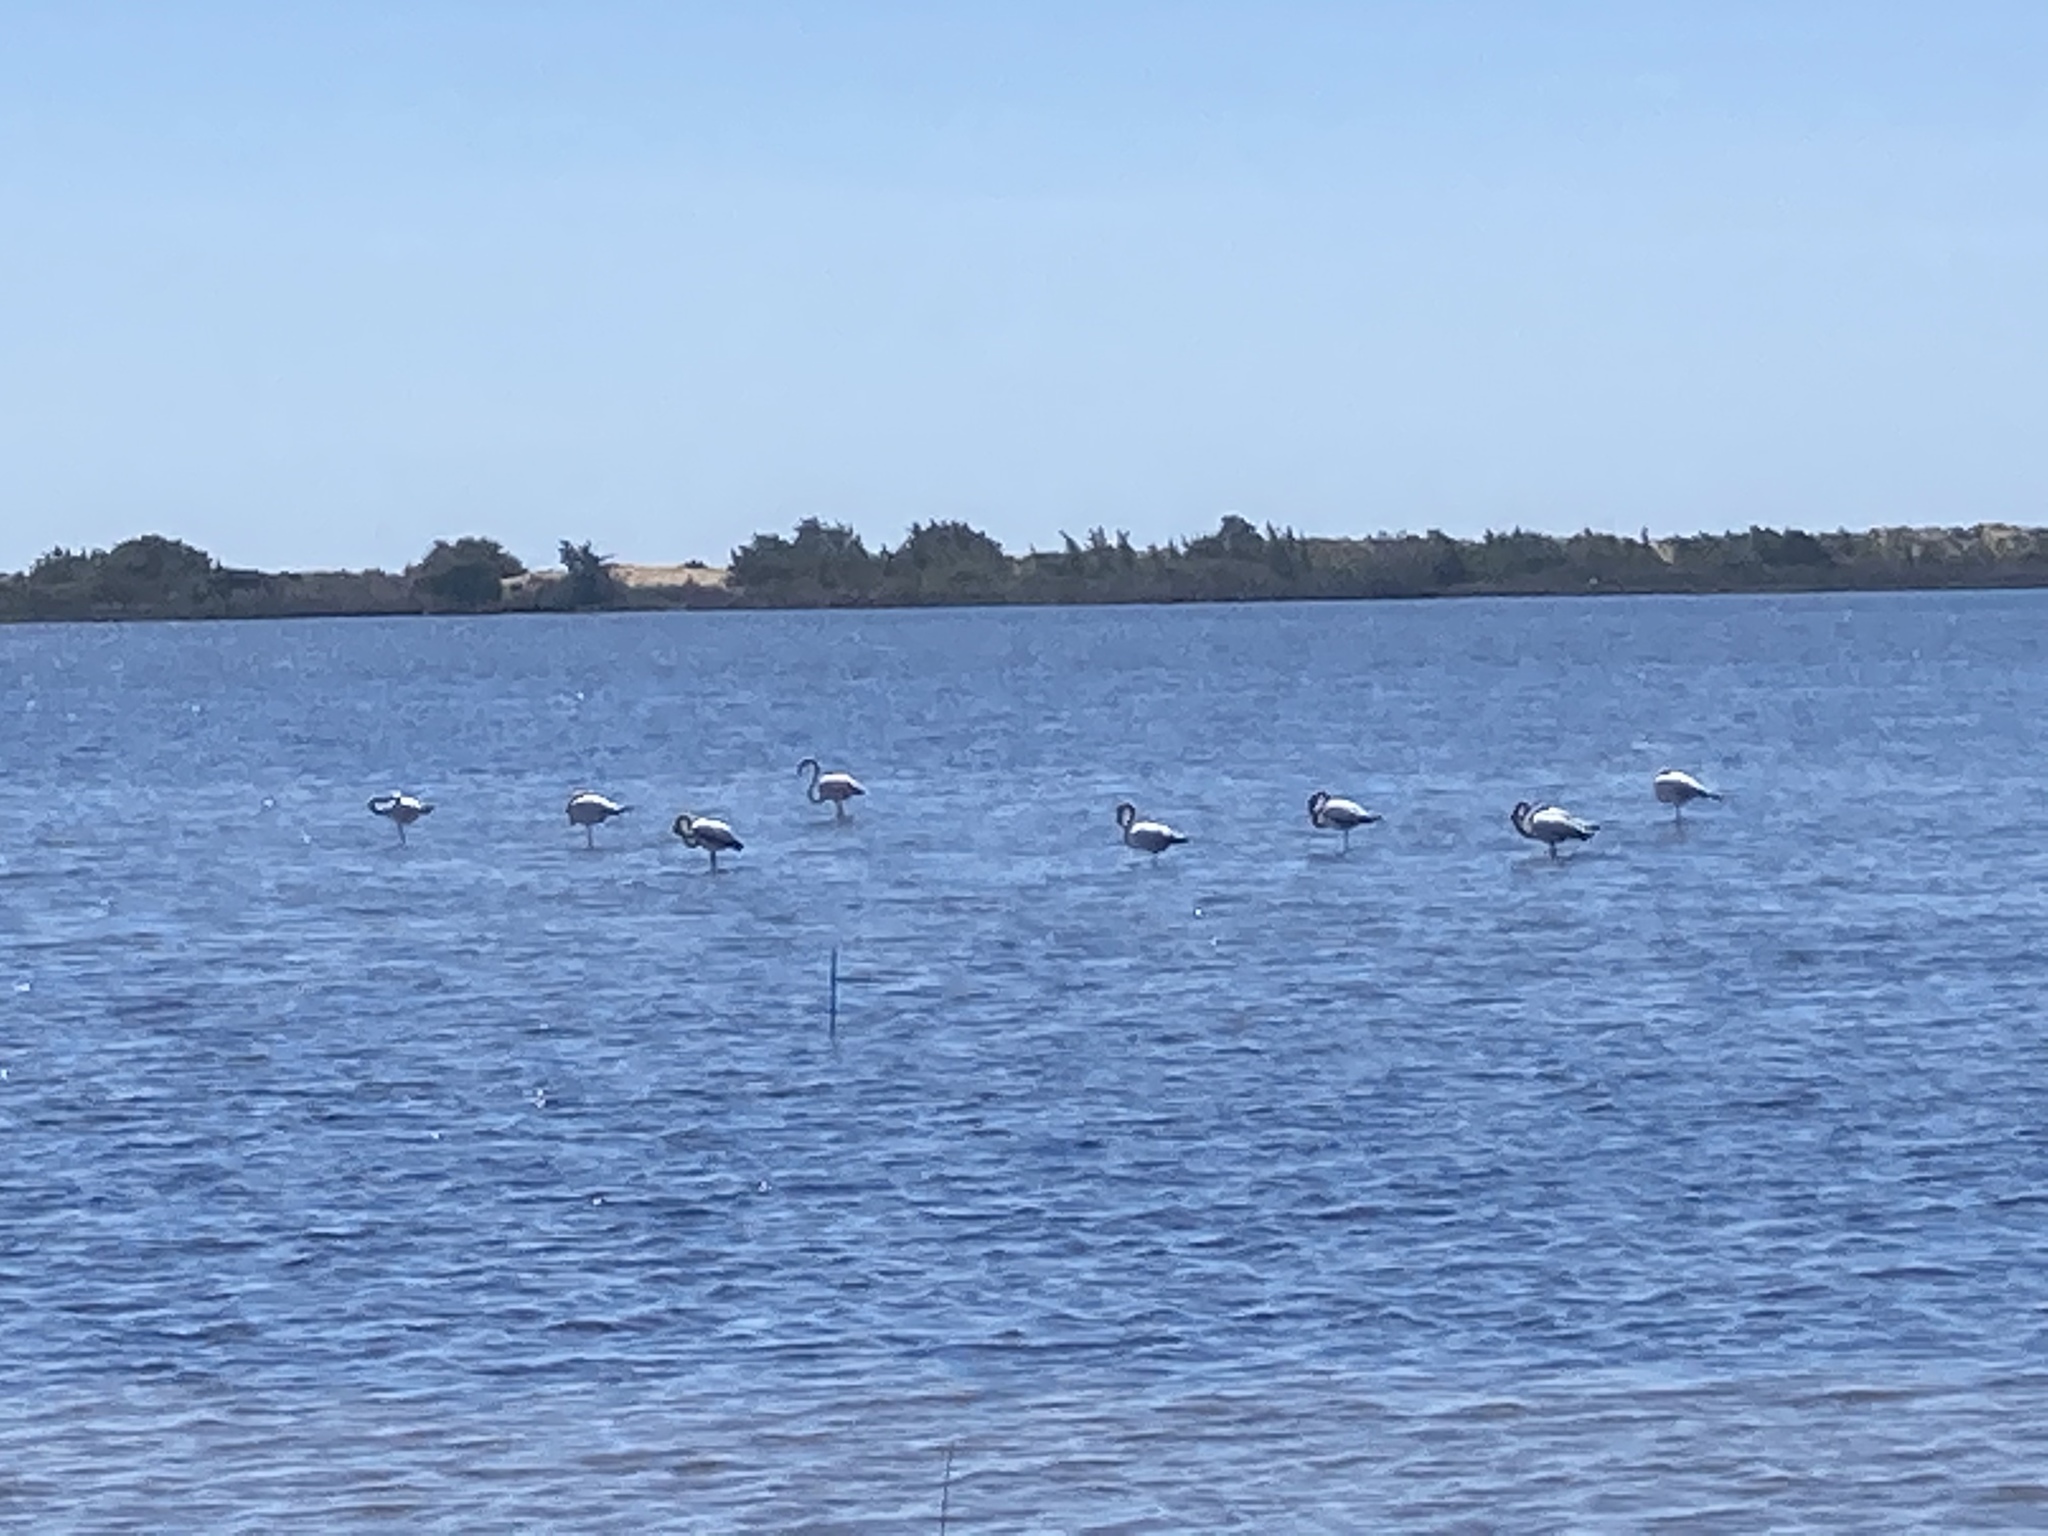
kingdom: Animalia
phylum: Chordata
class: Aves
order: Phoenicopteriformes
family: Phoenicopteridae
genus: Phoenicopterus
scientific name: Phoenicopterus roseus
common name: Greater flamingo
